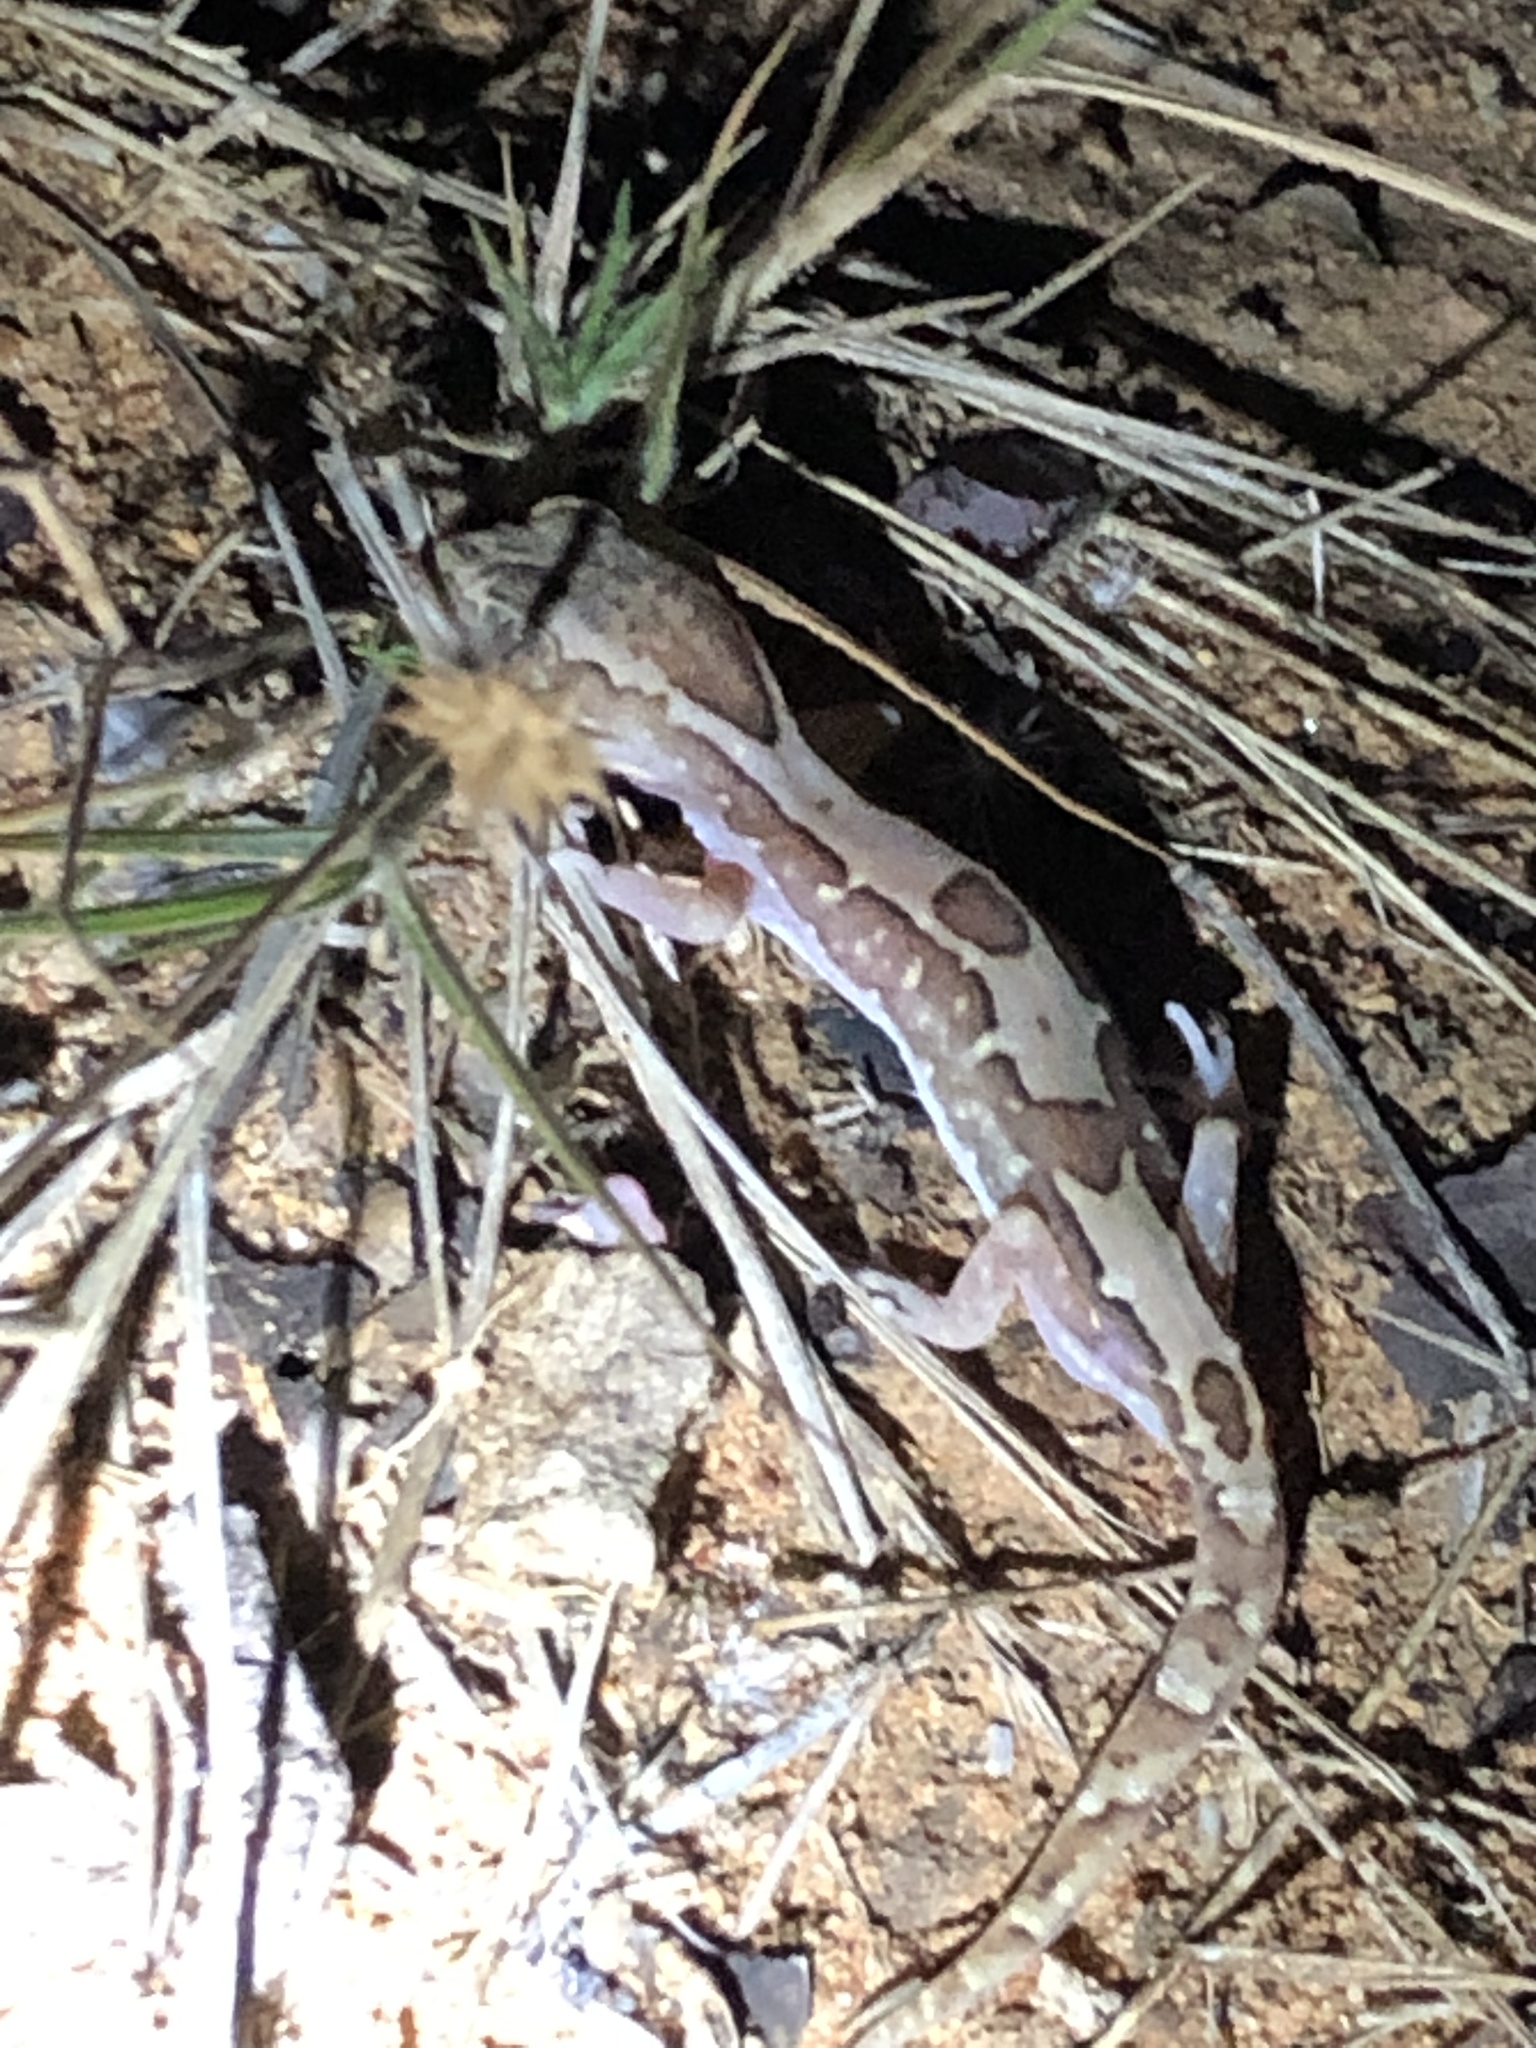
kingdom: Animalia
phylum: Chordata
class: Squamata
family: Diplodactylidae
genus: Lucasium
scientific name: Lucasium steindachneri
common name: Box-patterned gecko
